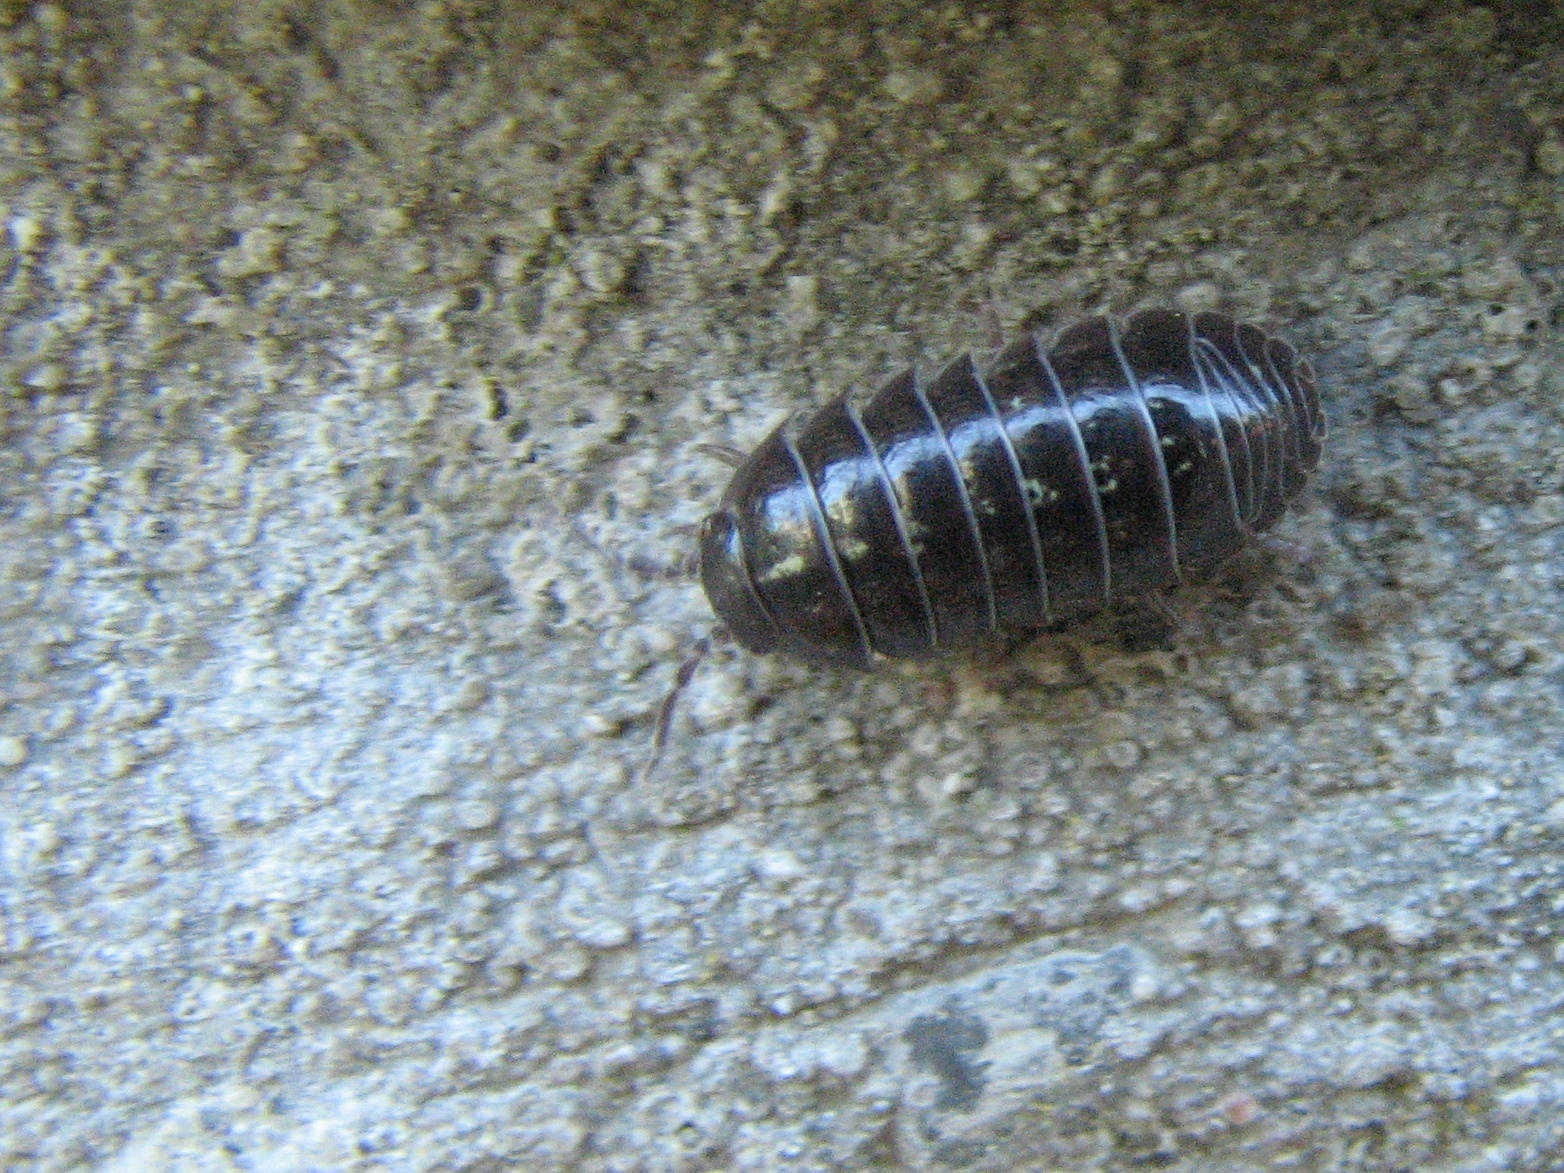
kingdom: Animalia
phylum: Arthropoda
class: Malacostraca
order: Isopoda
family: Armadillidiidae
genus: Armadillidium
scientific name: Armadillidium vulgare
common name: Common pill woodlouse
